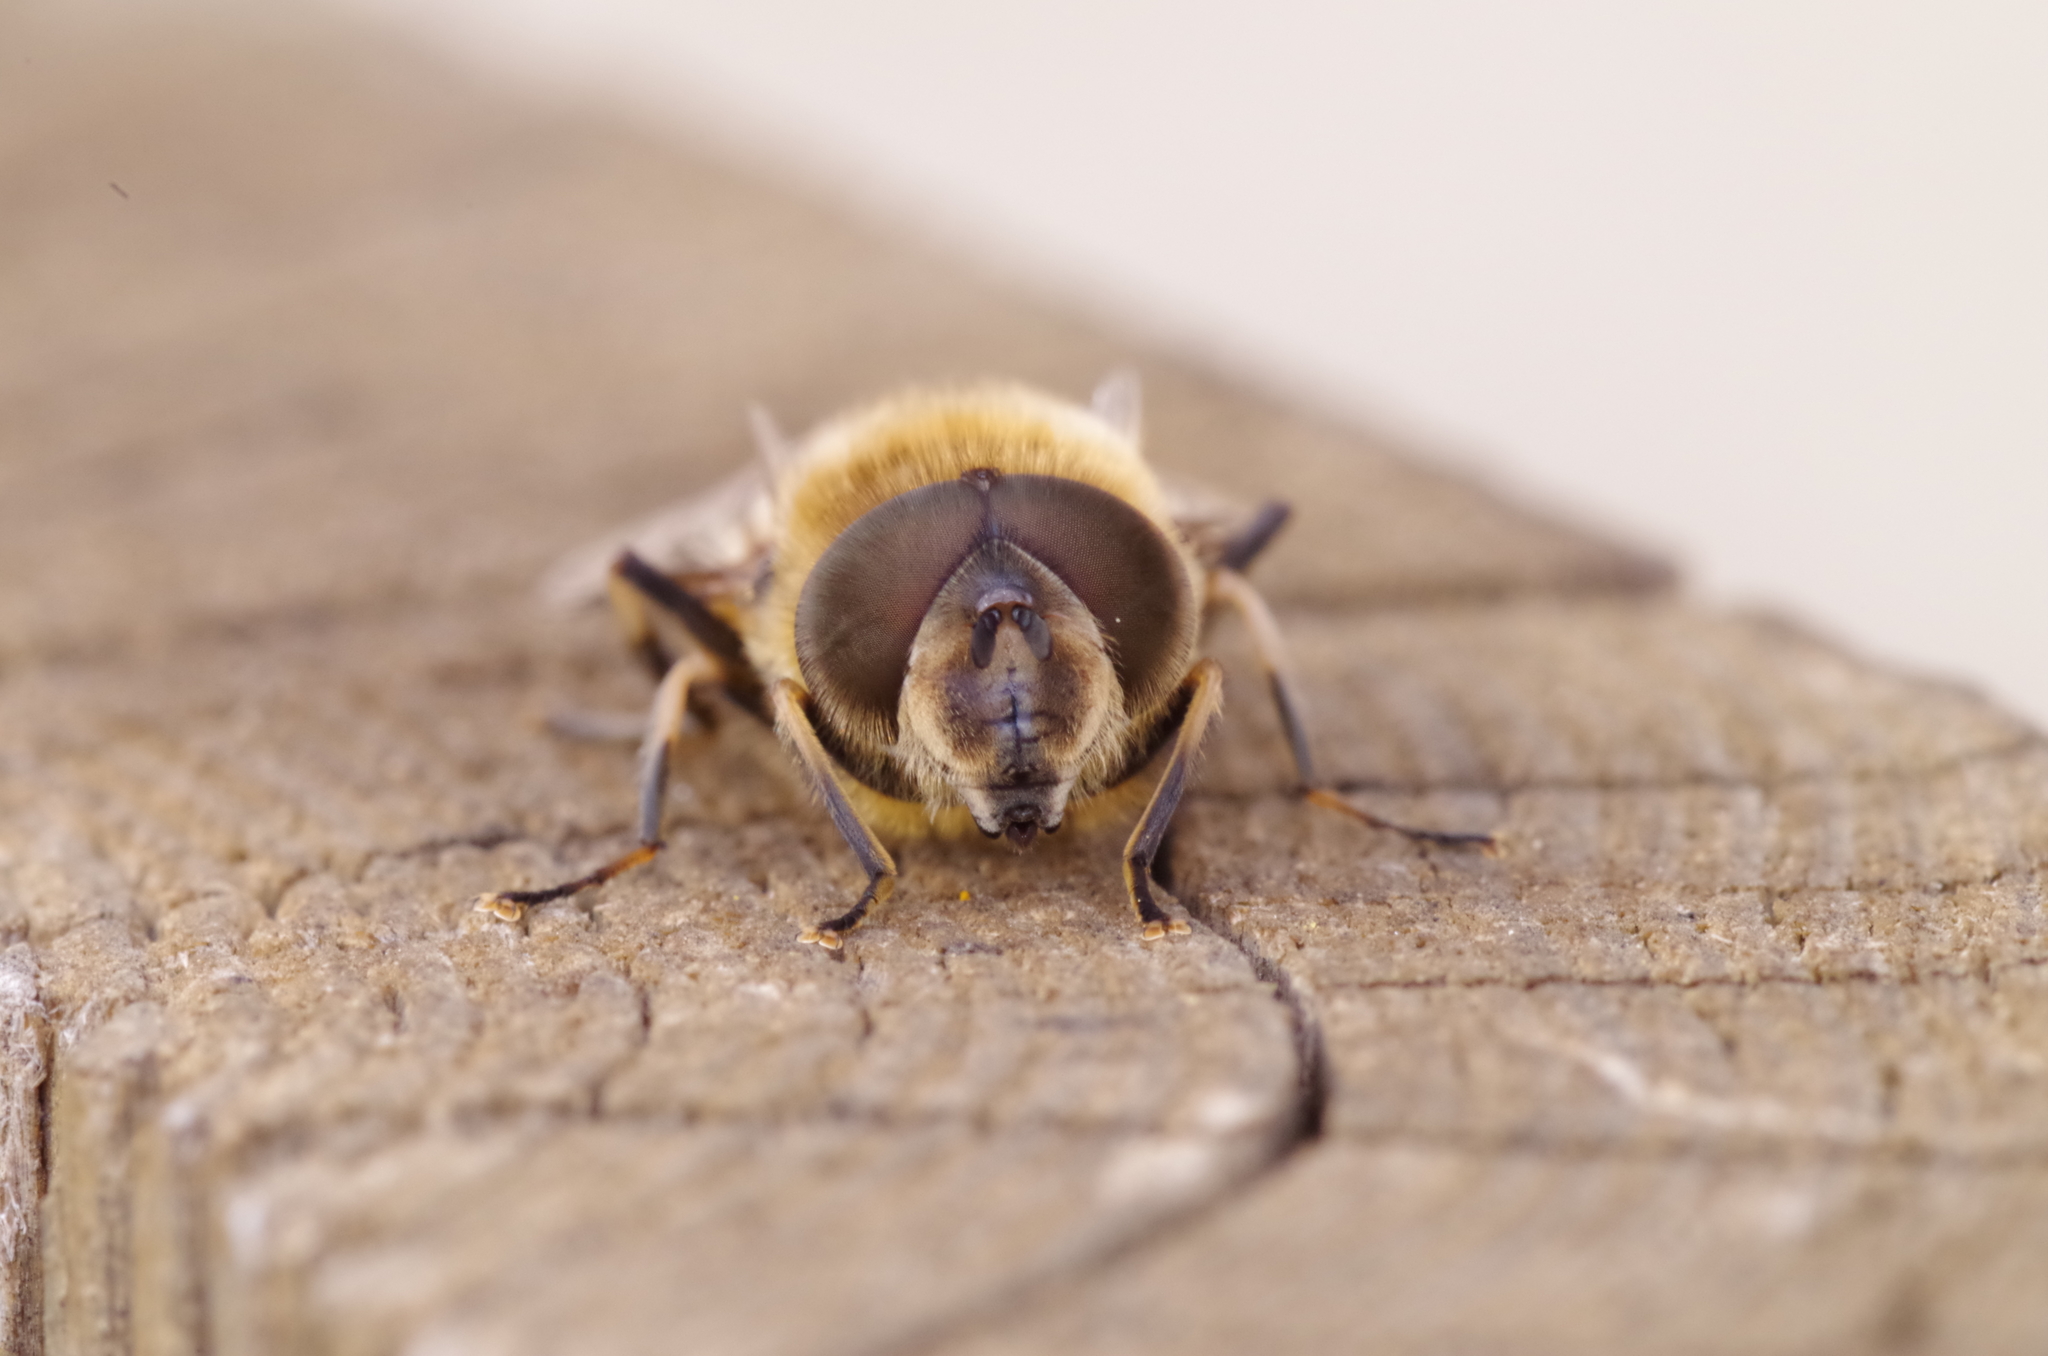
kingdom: Animalia
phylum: Arthropoda
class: Insecta
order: Diptera
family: Syrphidae
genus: Eristalis
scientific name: Eristalis pertinax
